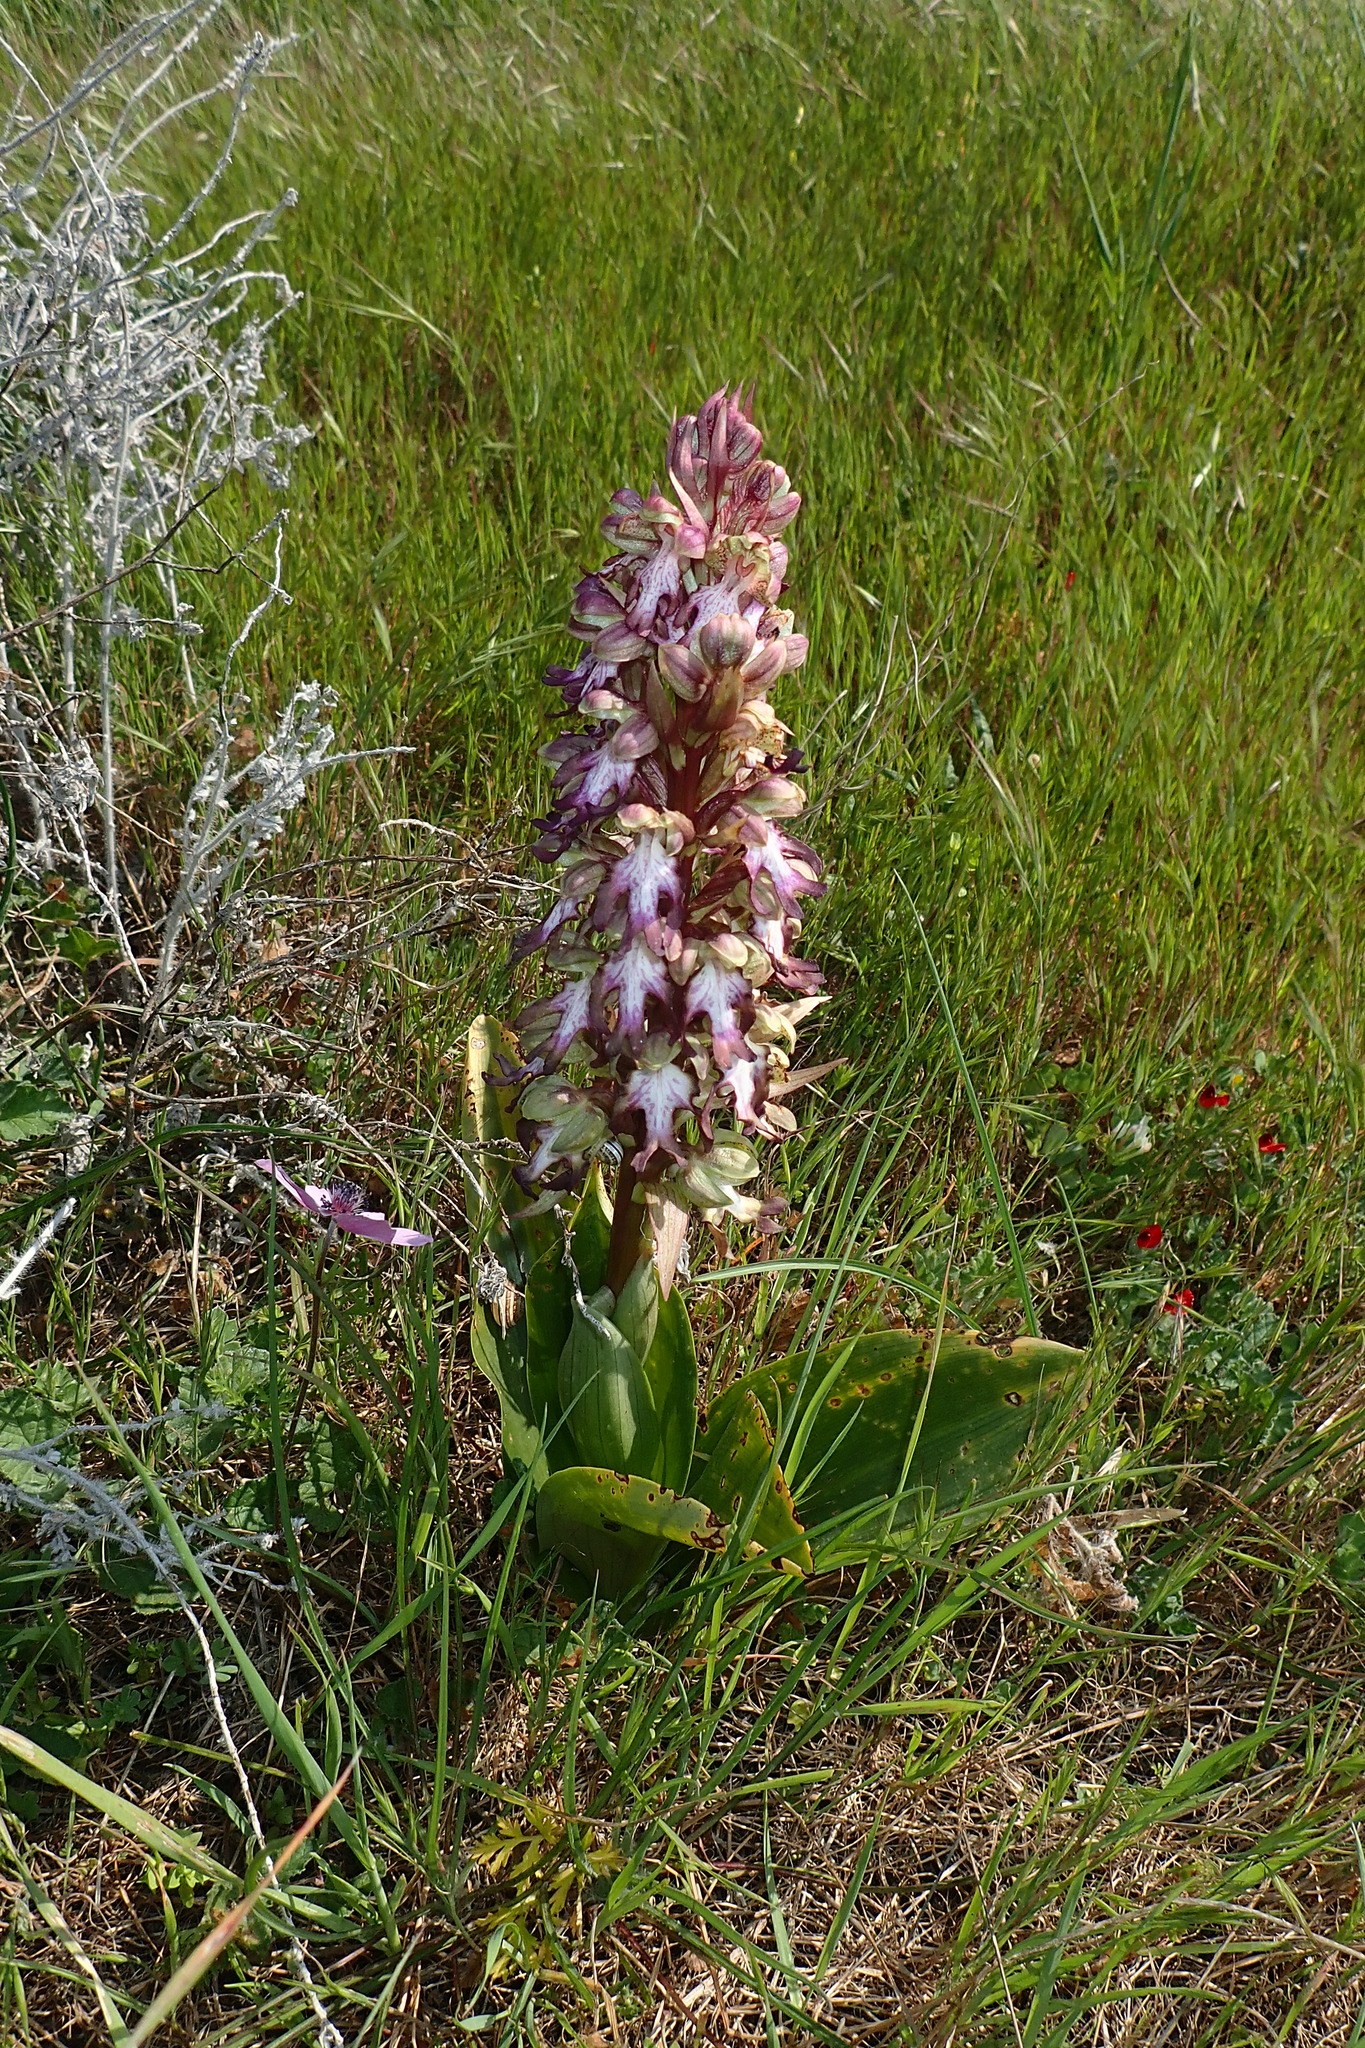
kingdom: Plantae
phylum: Tracheophyta
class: Liliopsida
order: Asparagales
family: Orchidaceae
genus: Himantoglossum
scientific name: Himantoglossum robertianum
